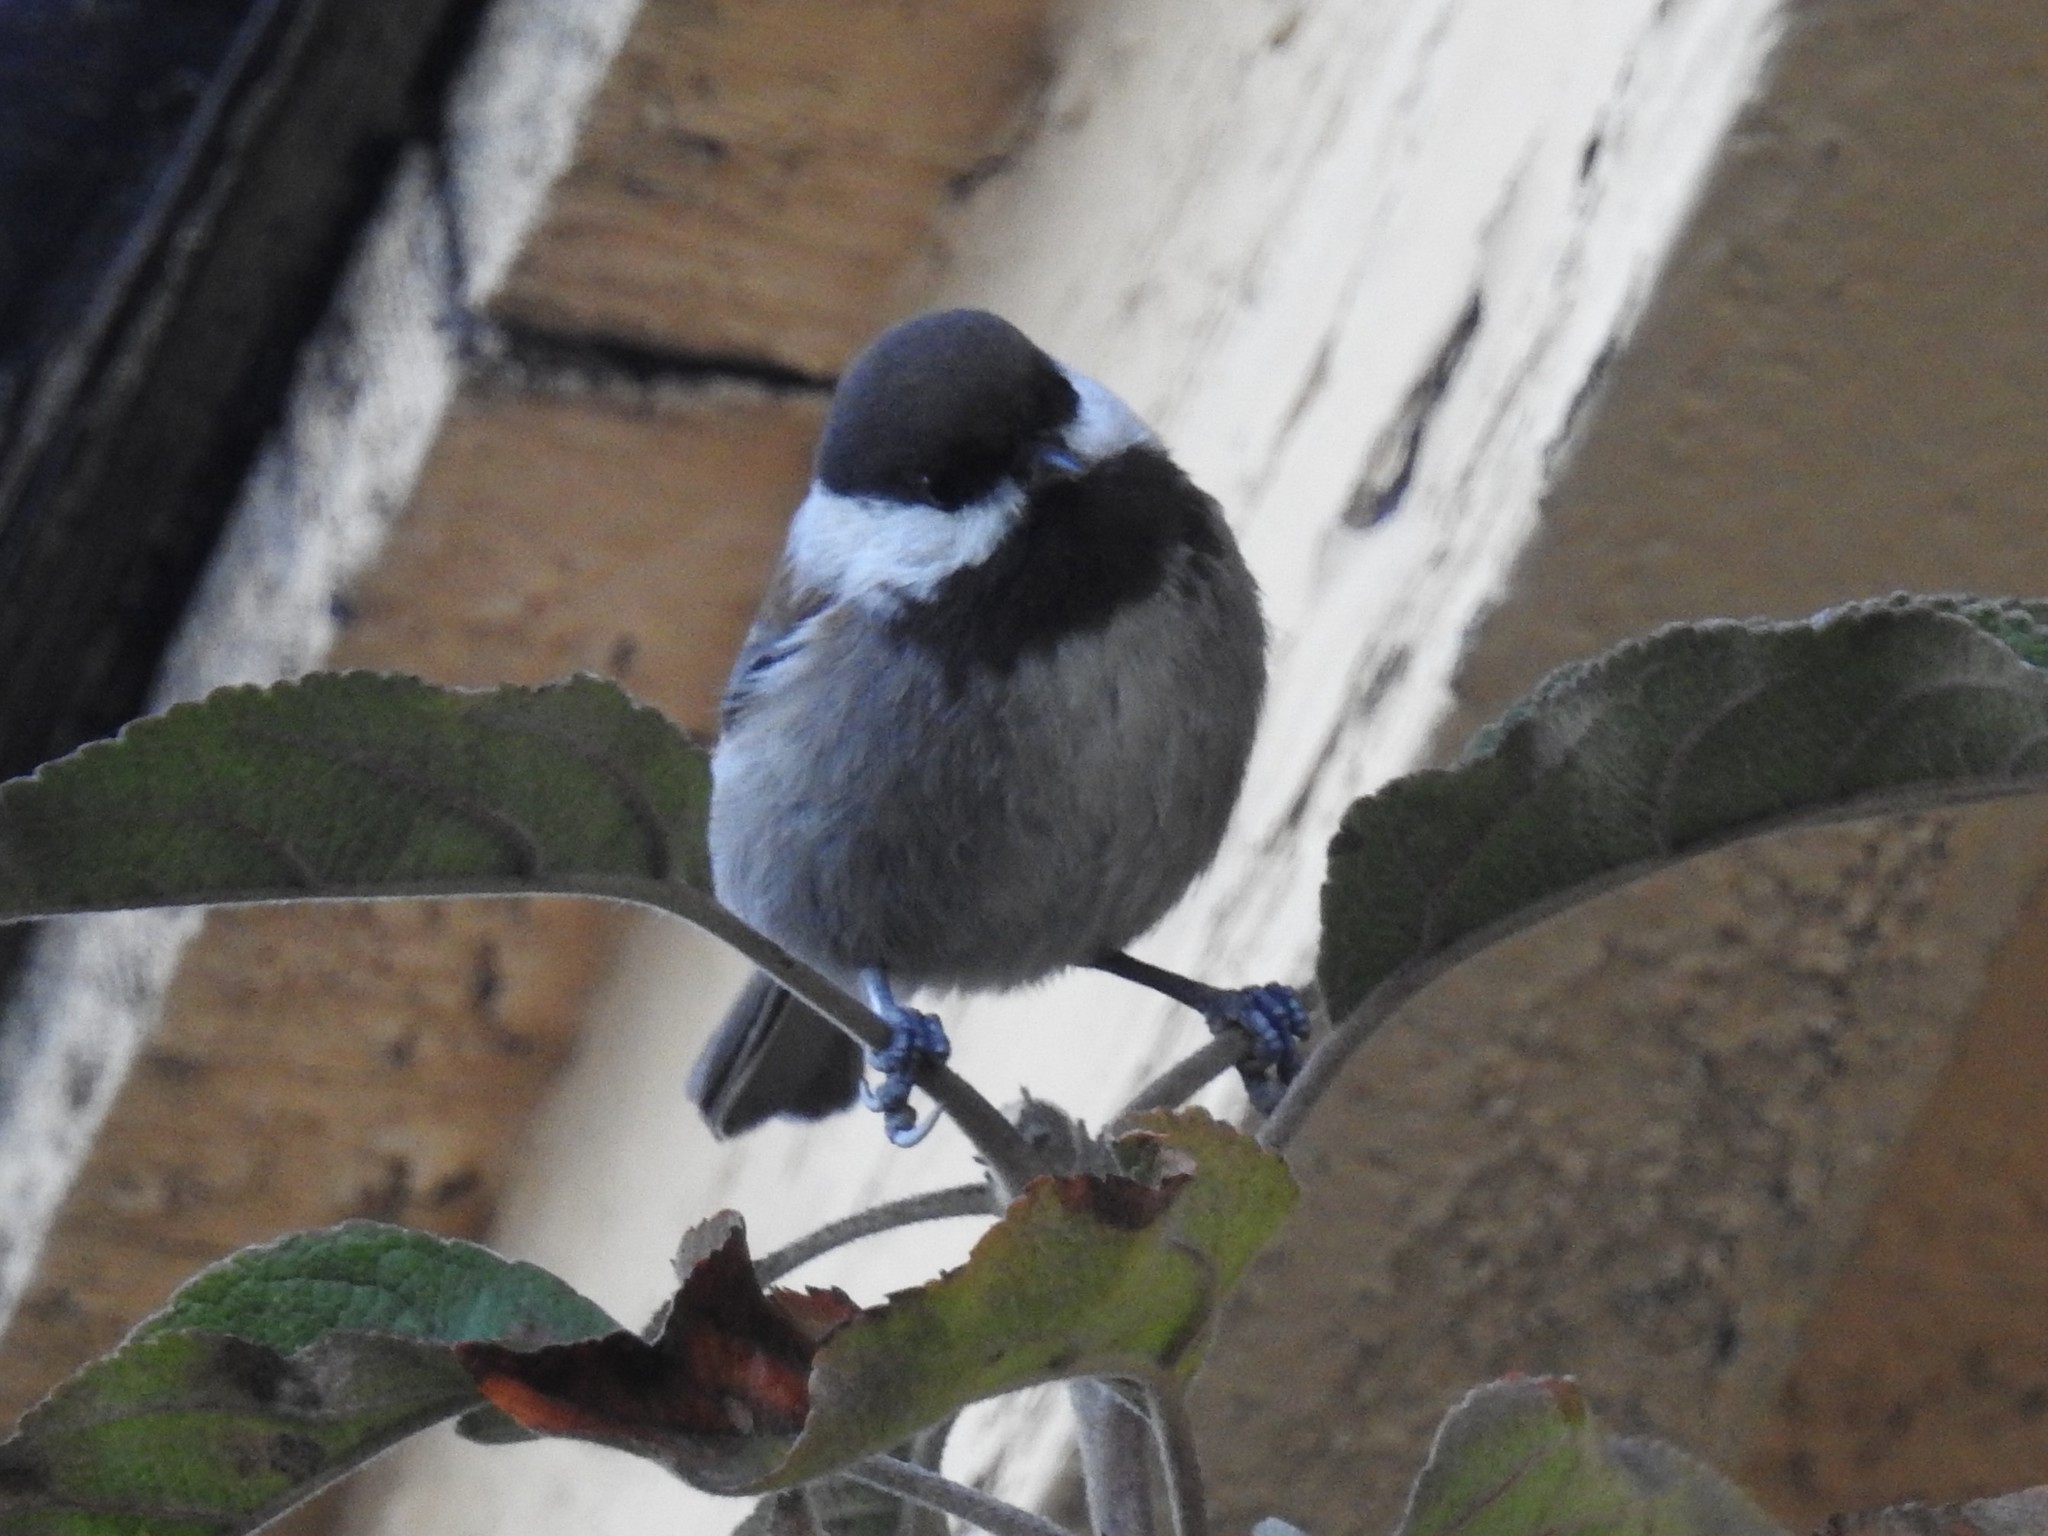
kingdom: Animalia
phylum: Chordata
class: Aves
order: Passeriformes
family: Paridae
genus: Poecile
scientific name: Poecile rufescens
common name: Chestnut-backed chickadee
